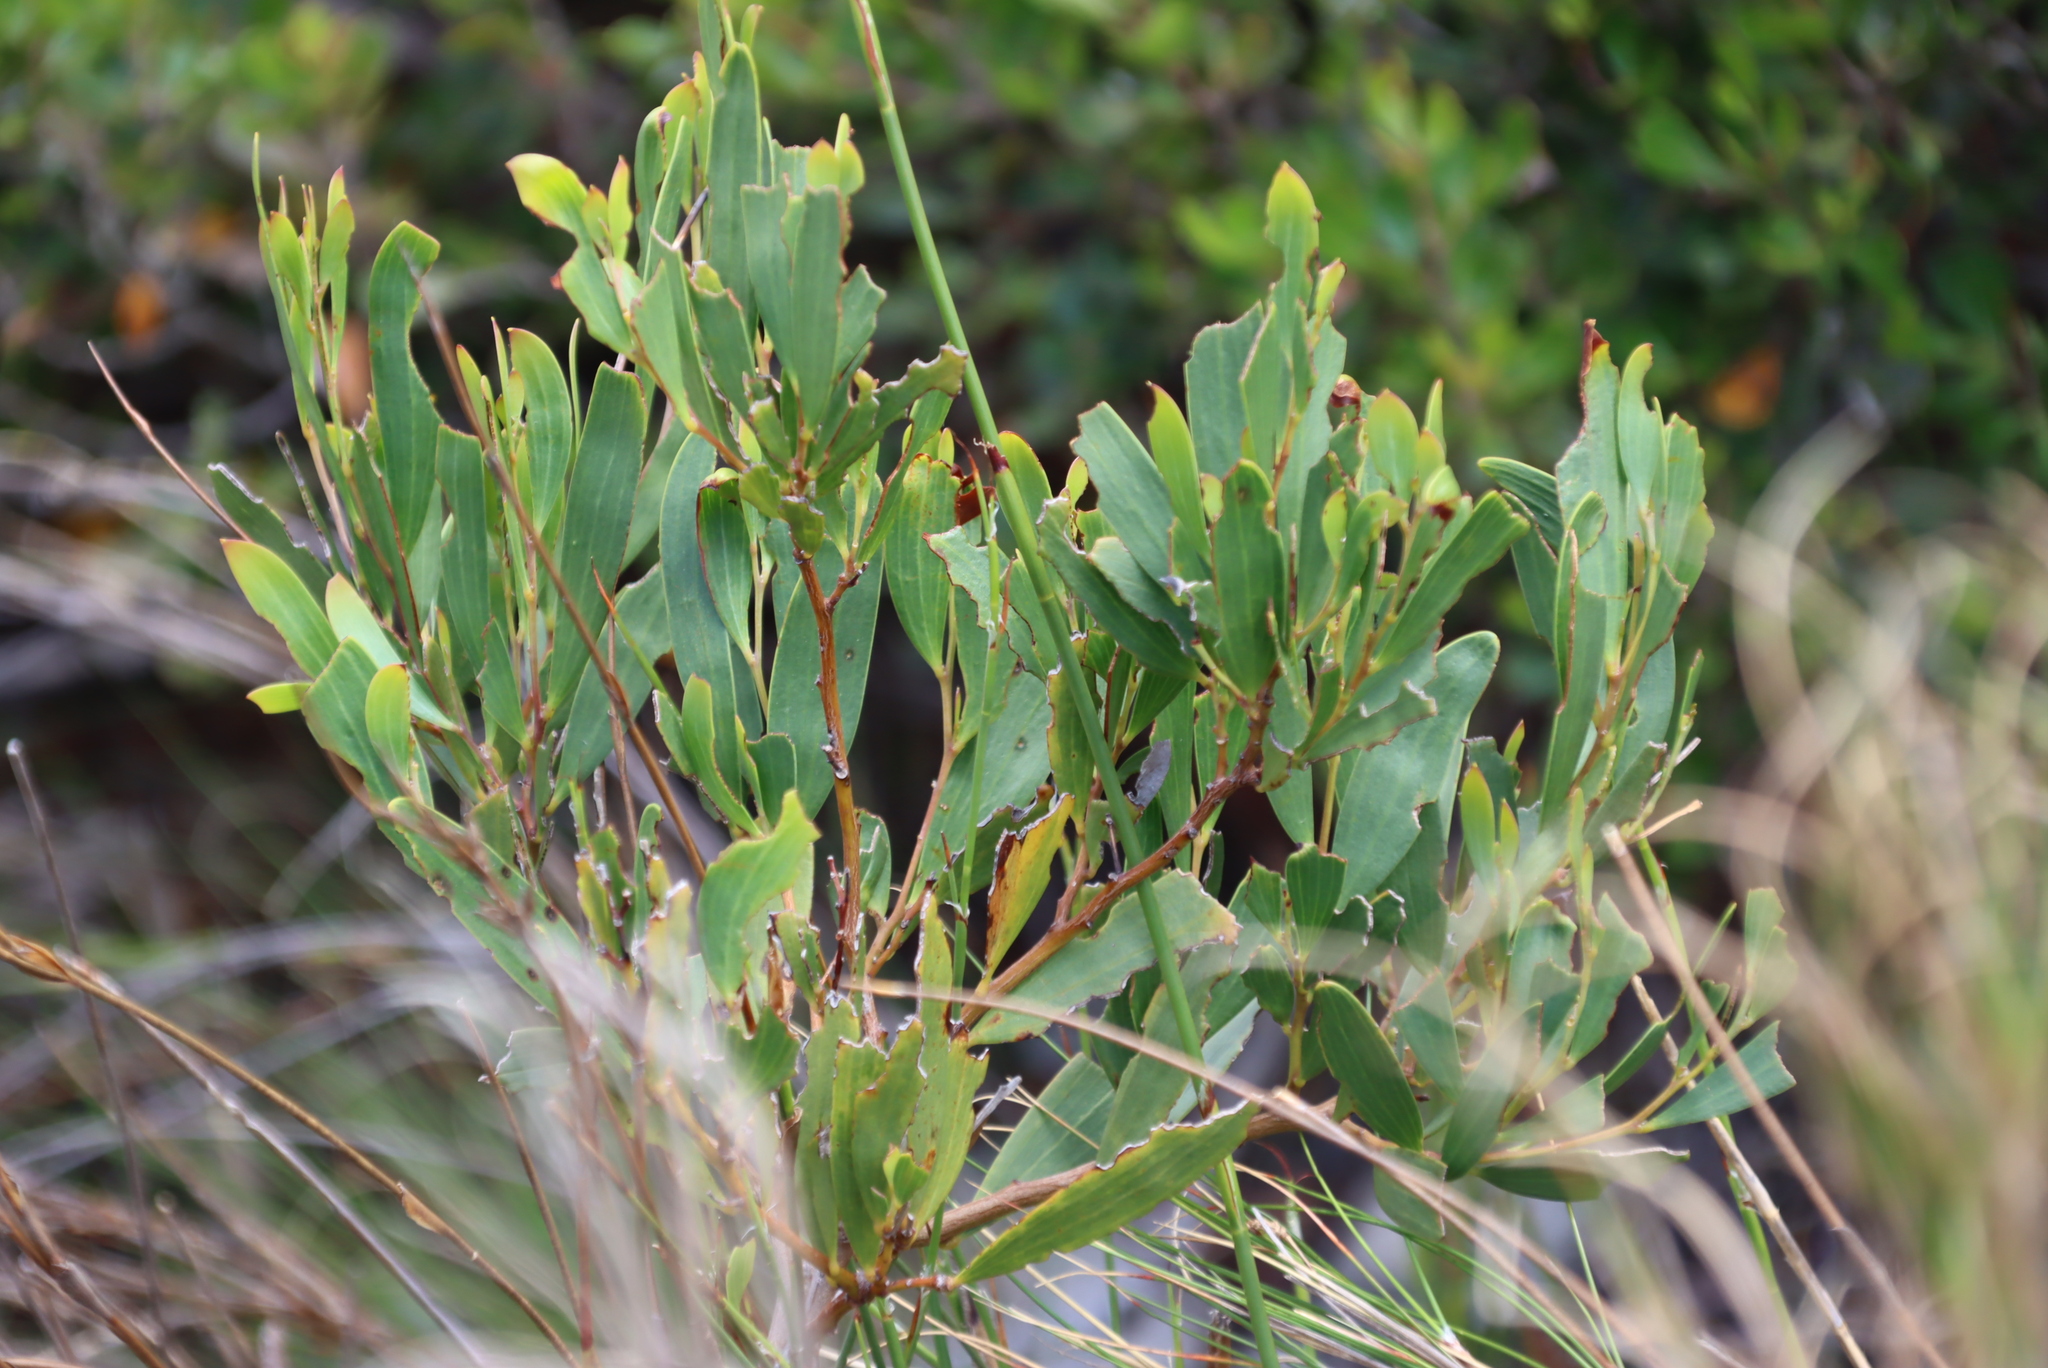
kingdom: Plantae
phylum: Tracheophyta
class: Magnoliopsida
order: Fabales
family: Fabaceae
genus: Acacia
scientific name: Acacia cyclops
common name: Coastal wattle
